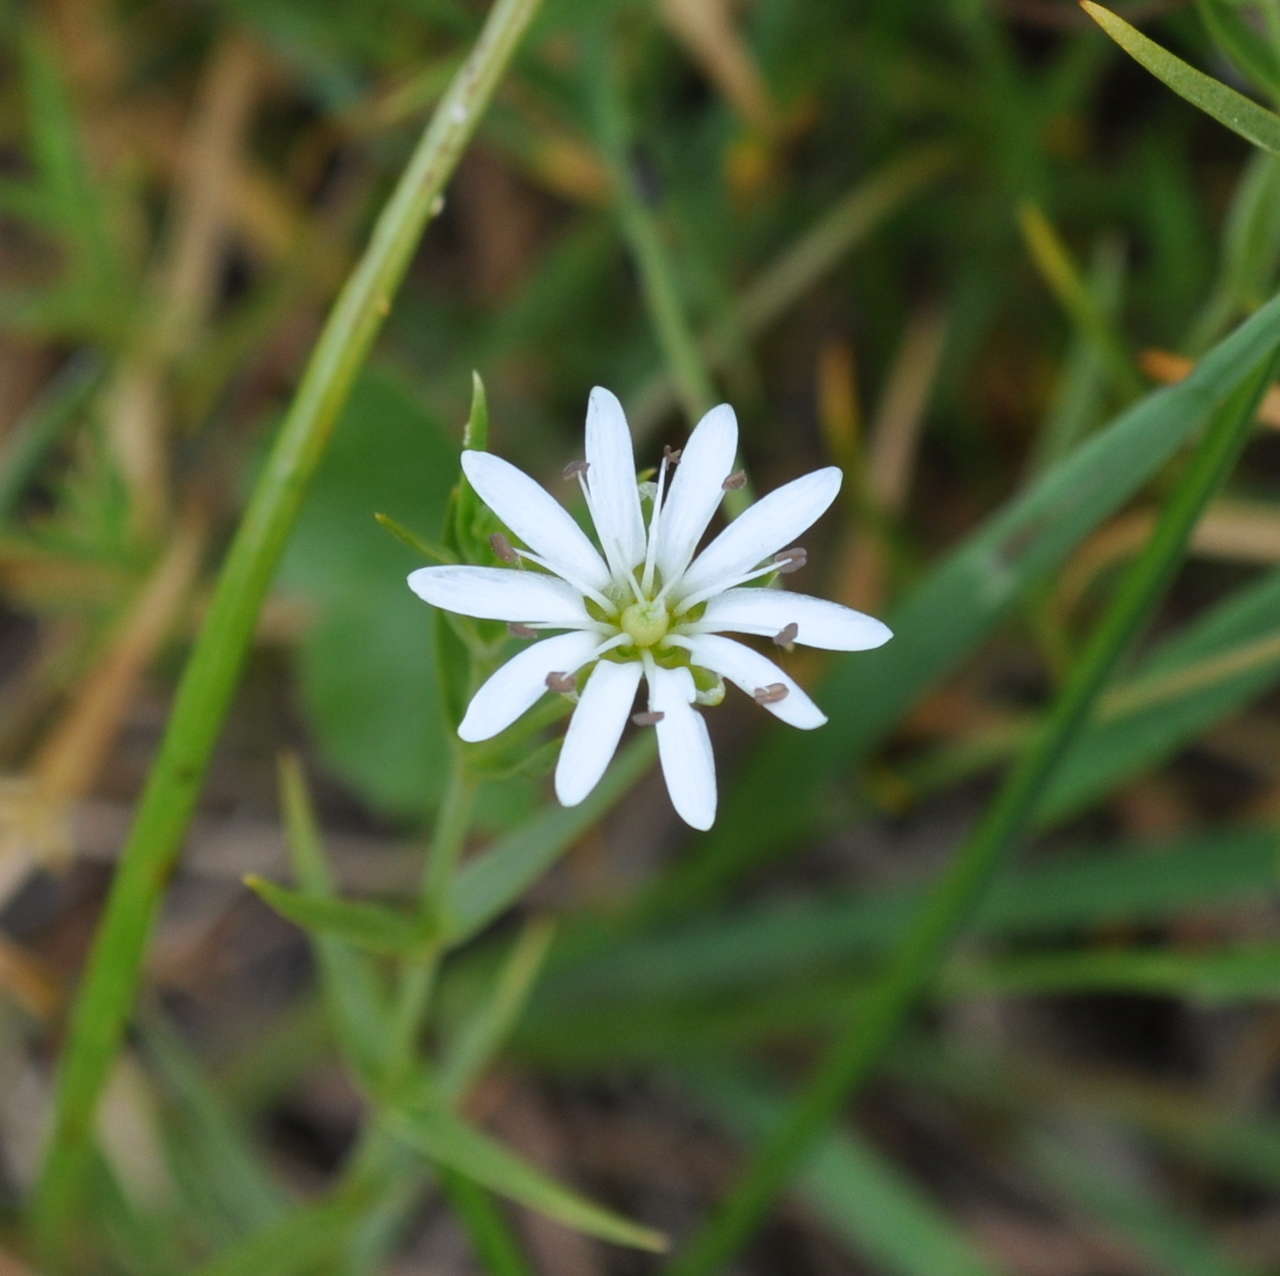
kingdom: Plantae
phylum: Tracheophyta
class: Magnoliopsida
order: Caryophyllales
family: Caryophyllaceae
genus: Stellaria
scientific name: Stellaria angustifolia
